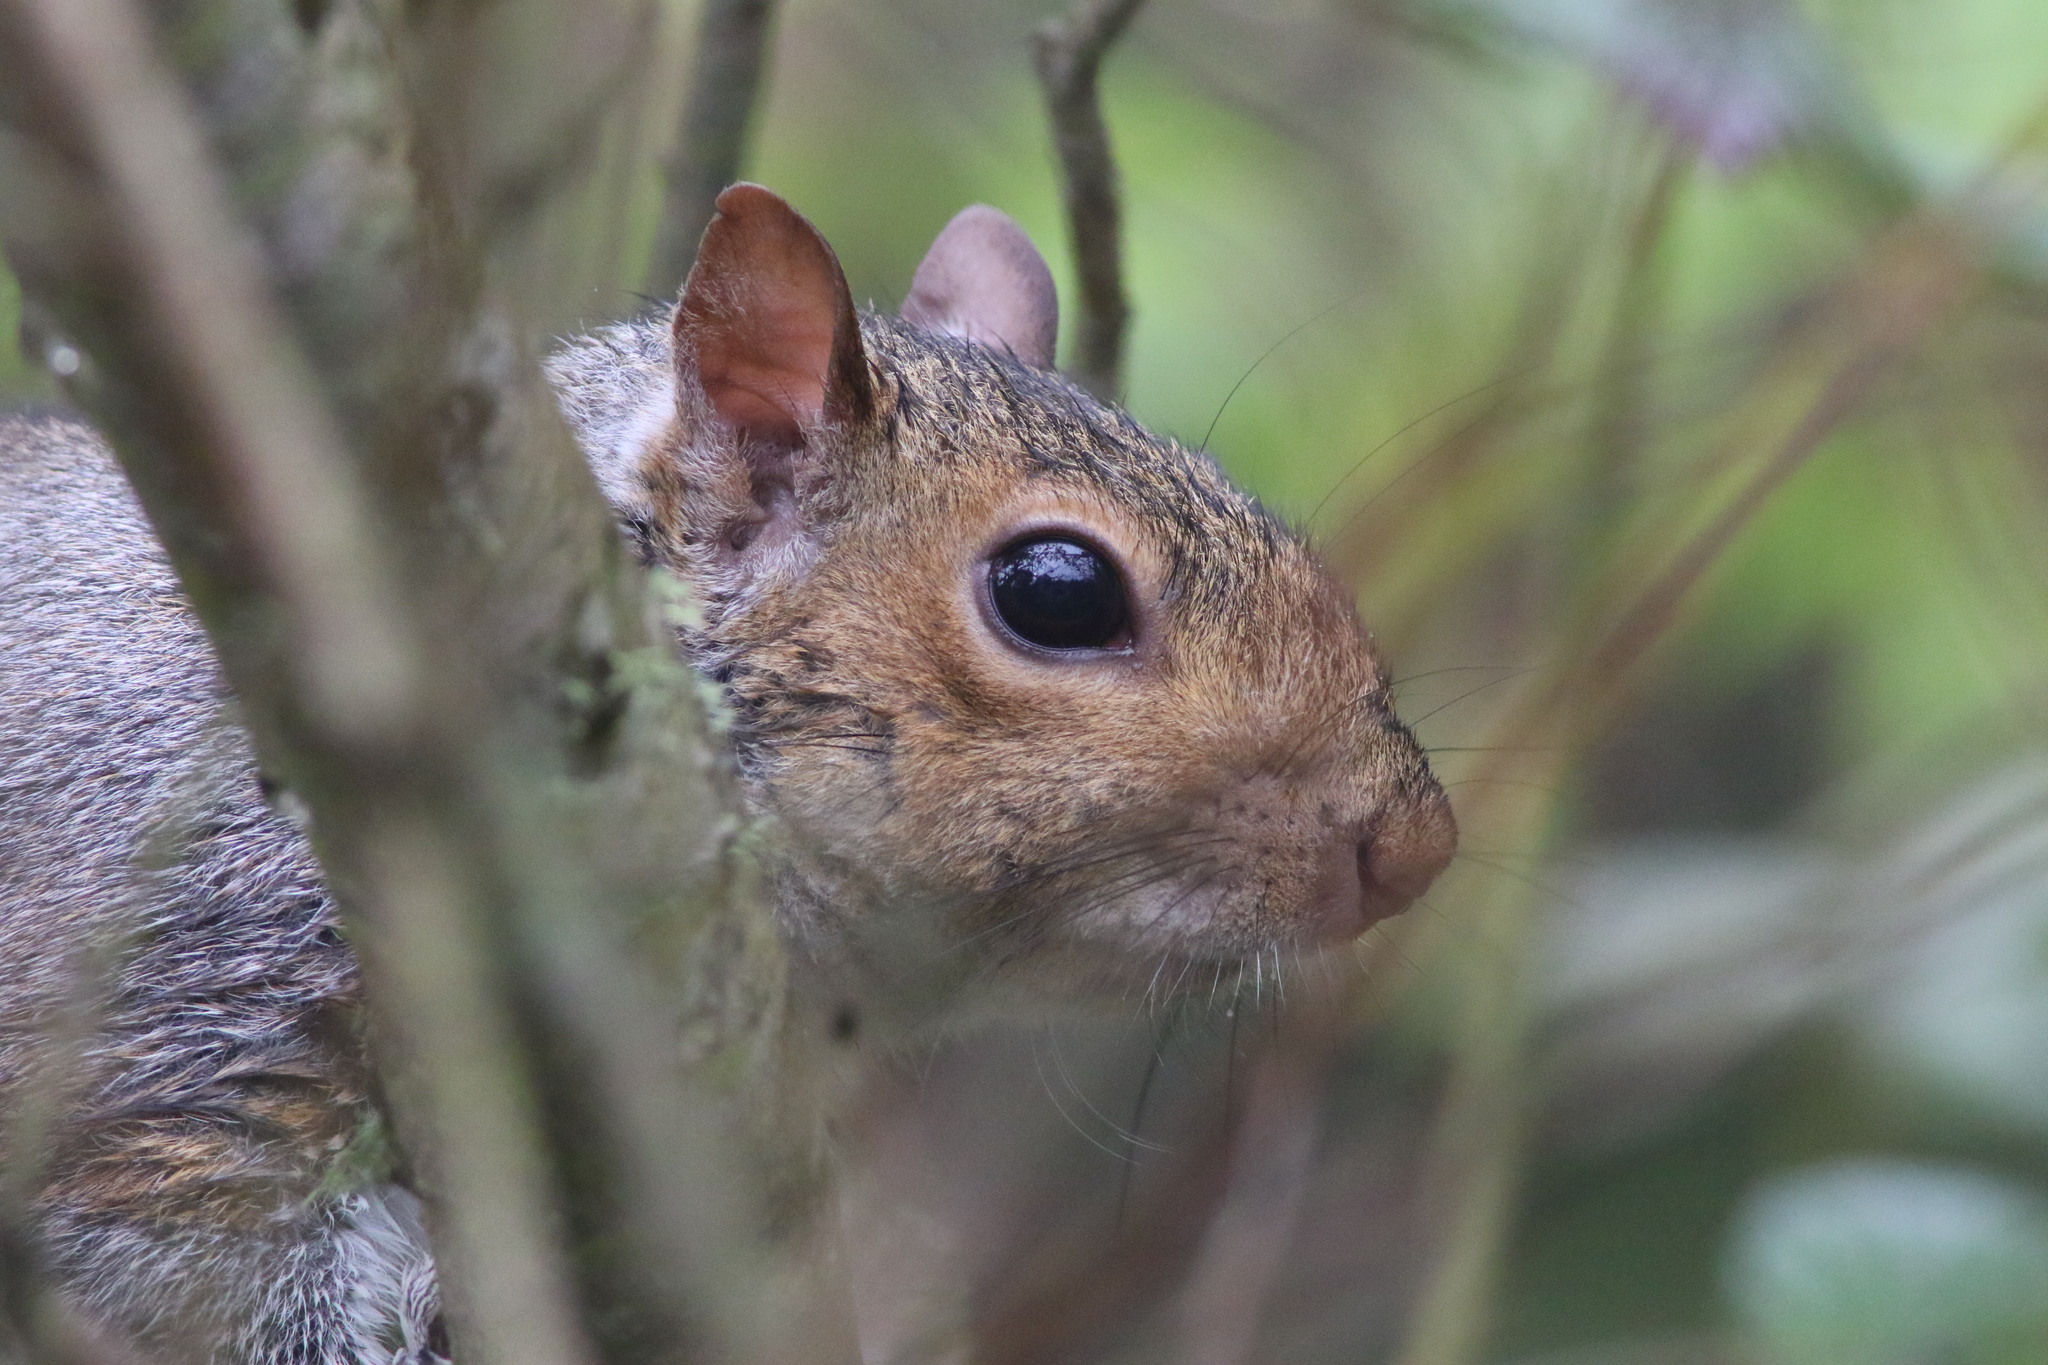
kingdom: Animalia
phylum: Chordata
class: Mammalia
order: Rodentia
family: Sciuridae
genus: Sciurus
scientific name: Sciurus carolinensis
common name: Eastern gray squirrel
